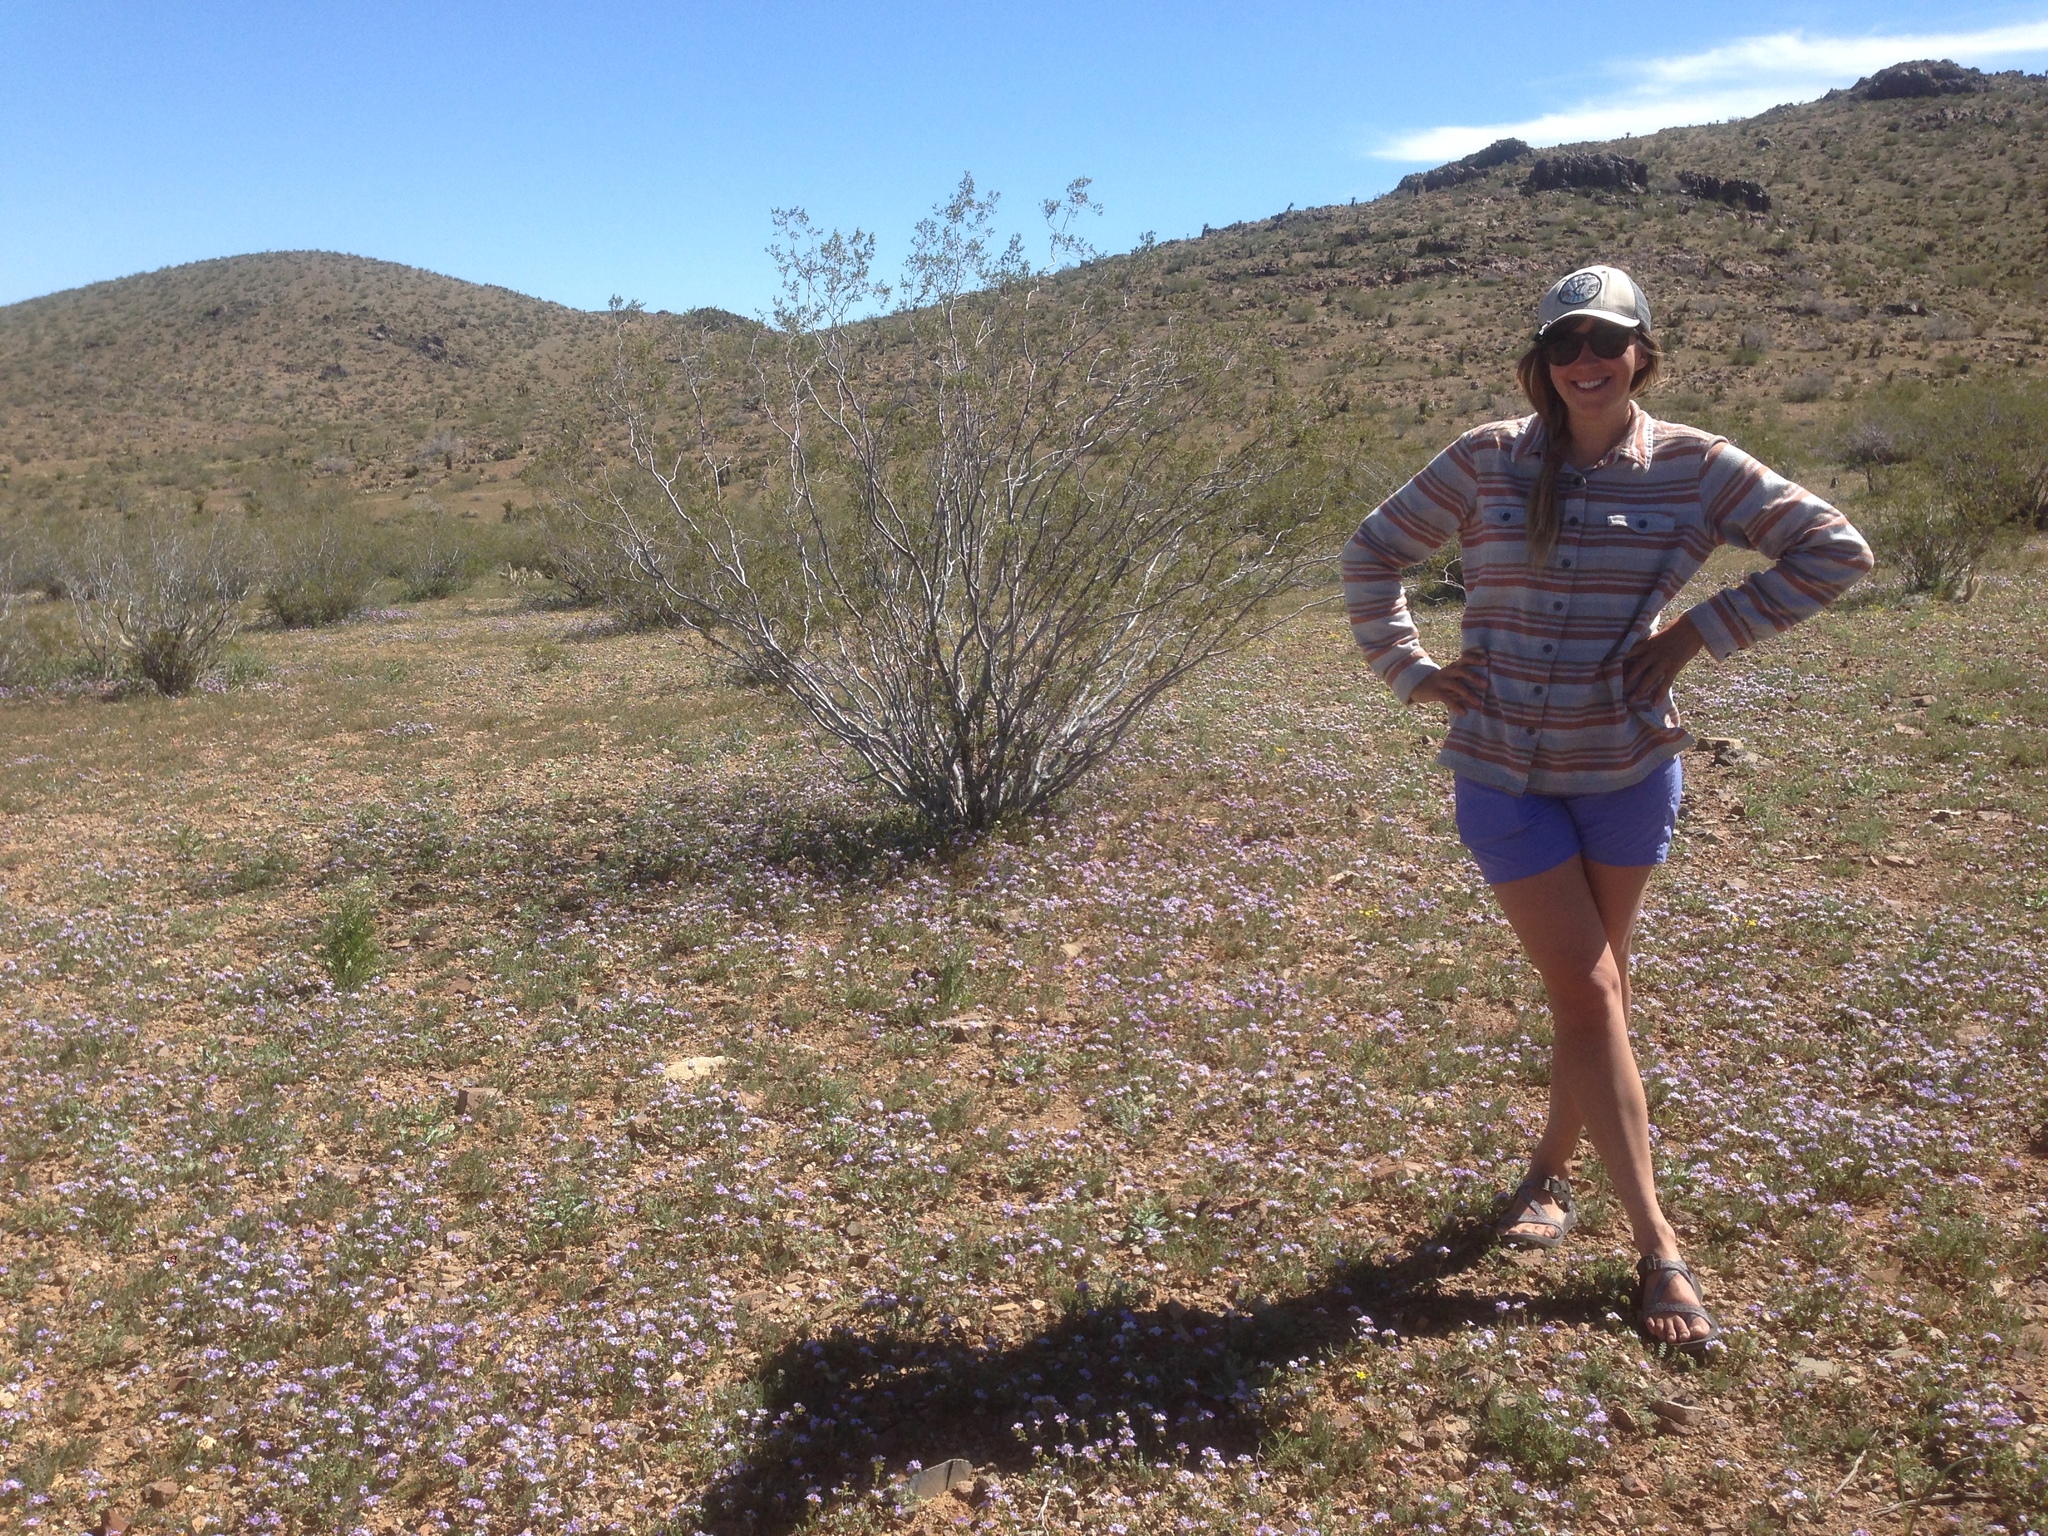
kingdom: Plantae
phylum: Tracheophyta
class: Magnoliopsida
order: Zygophyllales
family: Zygophyllaceae
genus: Larrea
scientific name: Larrea tridentata
